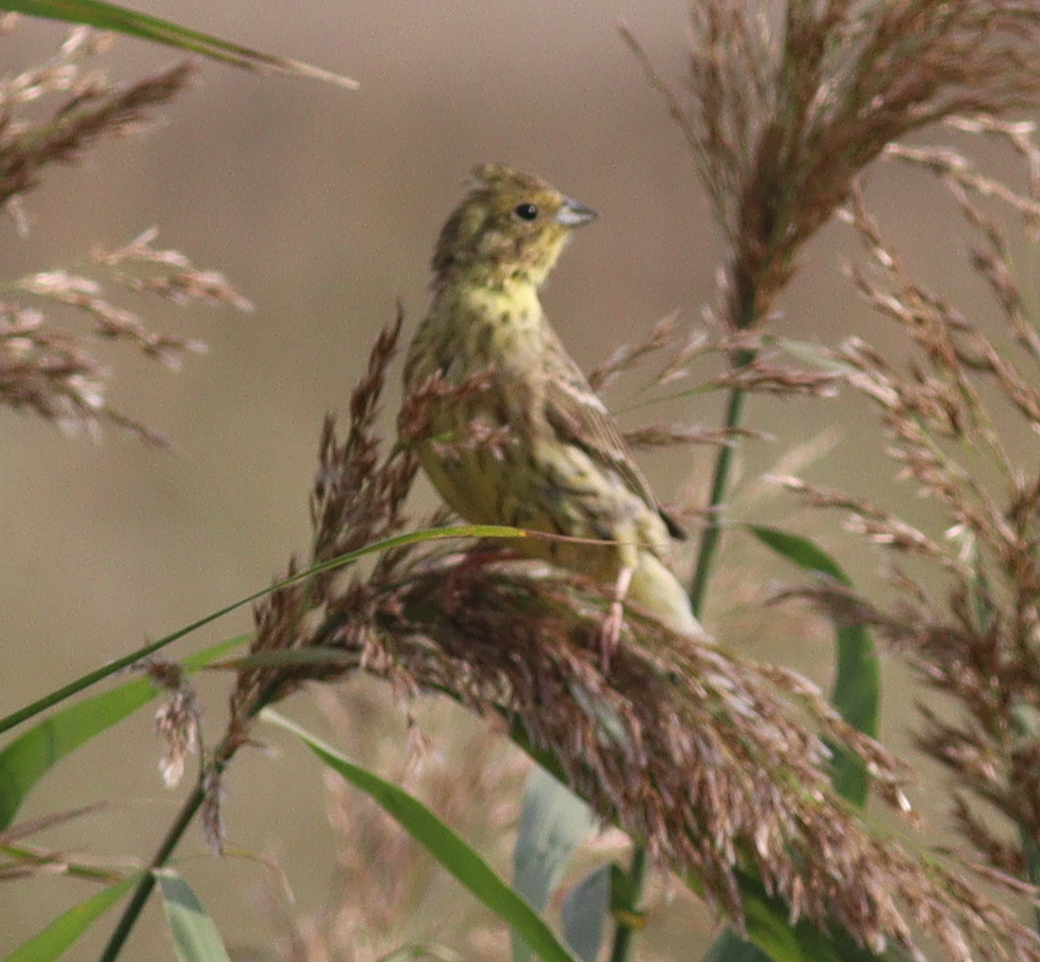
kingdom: Animalia
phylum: Chordata
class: Aves
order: Passeriformes
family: Emberizidae
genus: Emberiza
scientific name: Emberiza citrinella
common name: Yellowhammer
